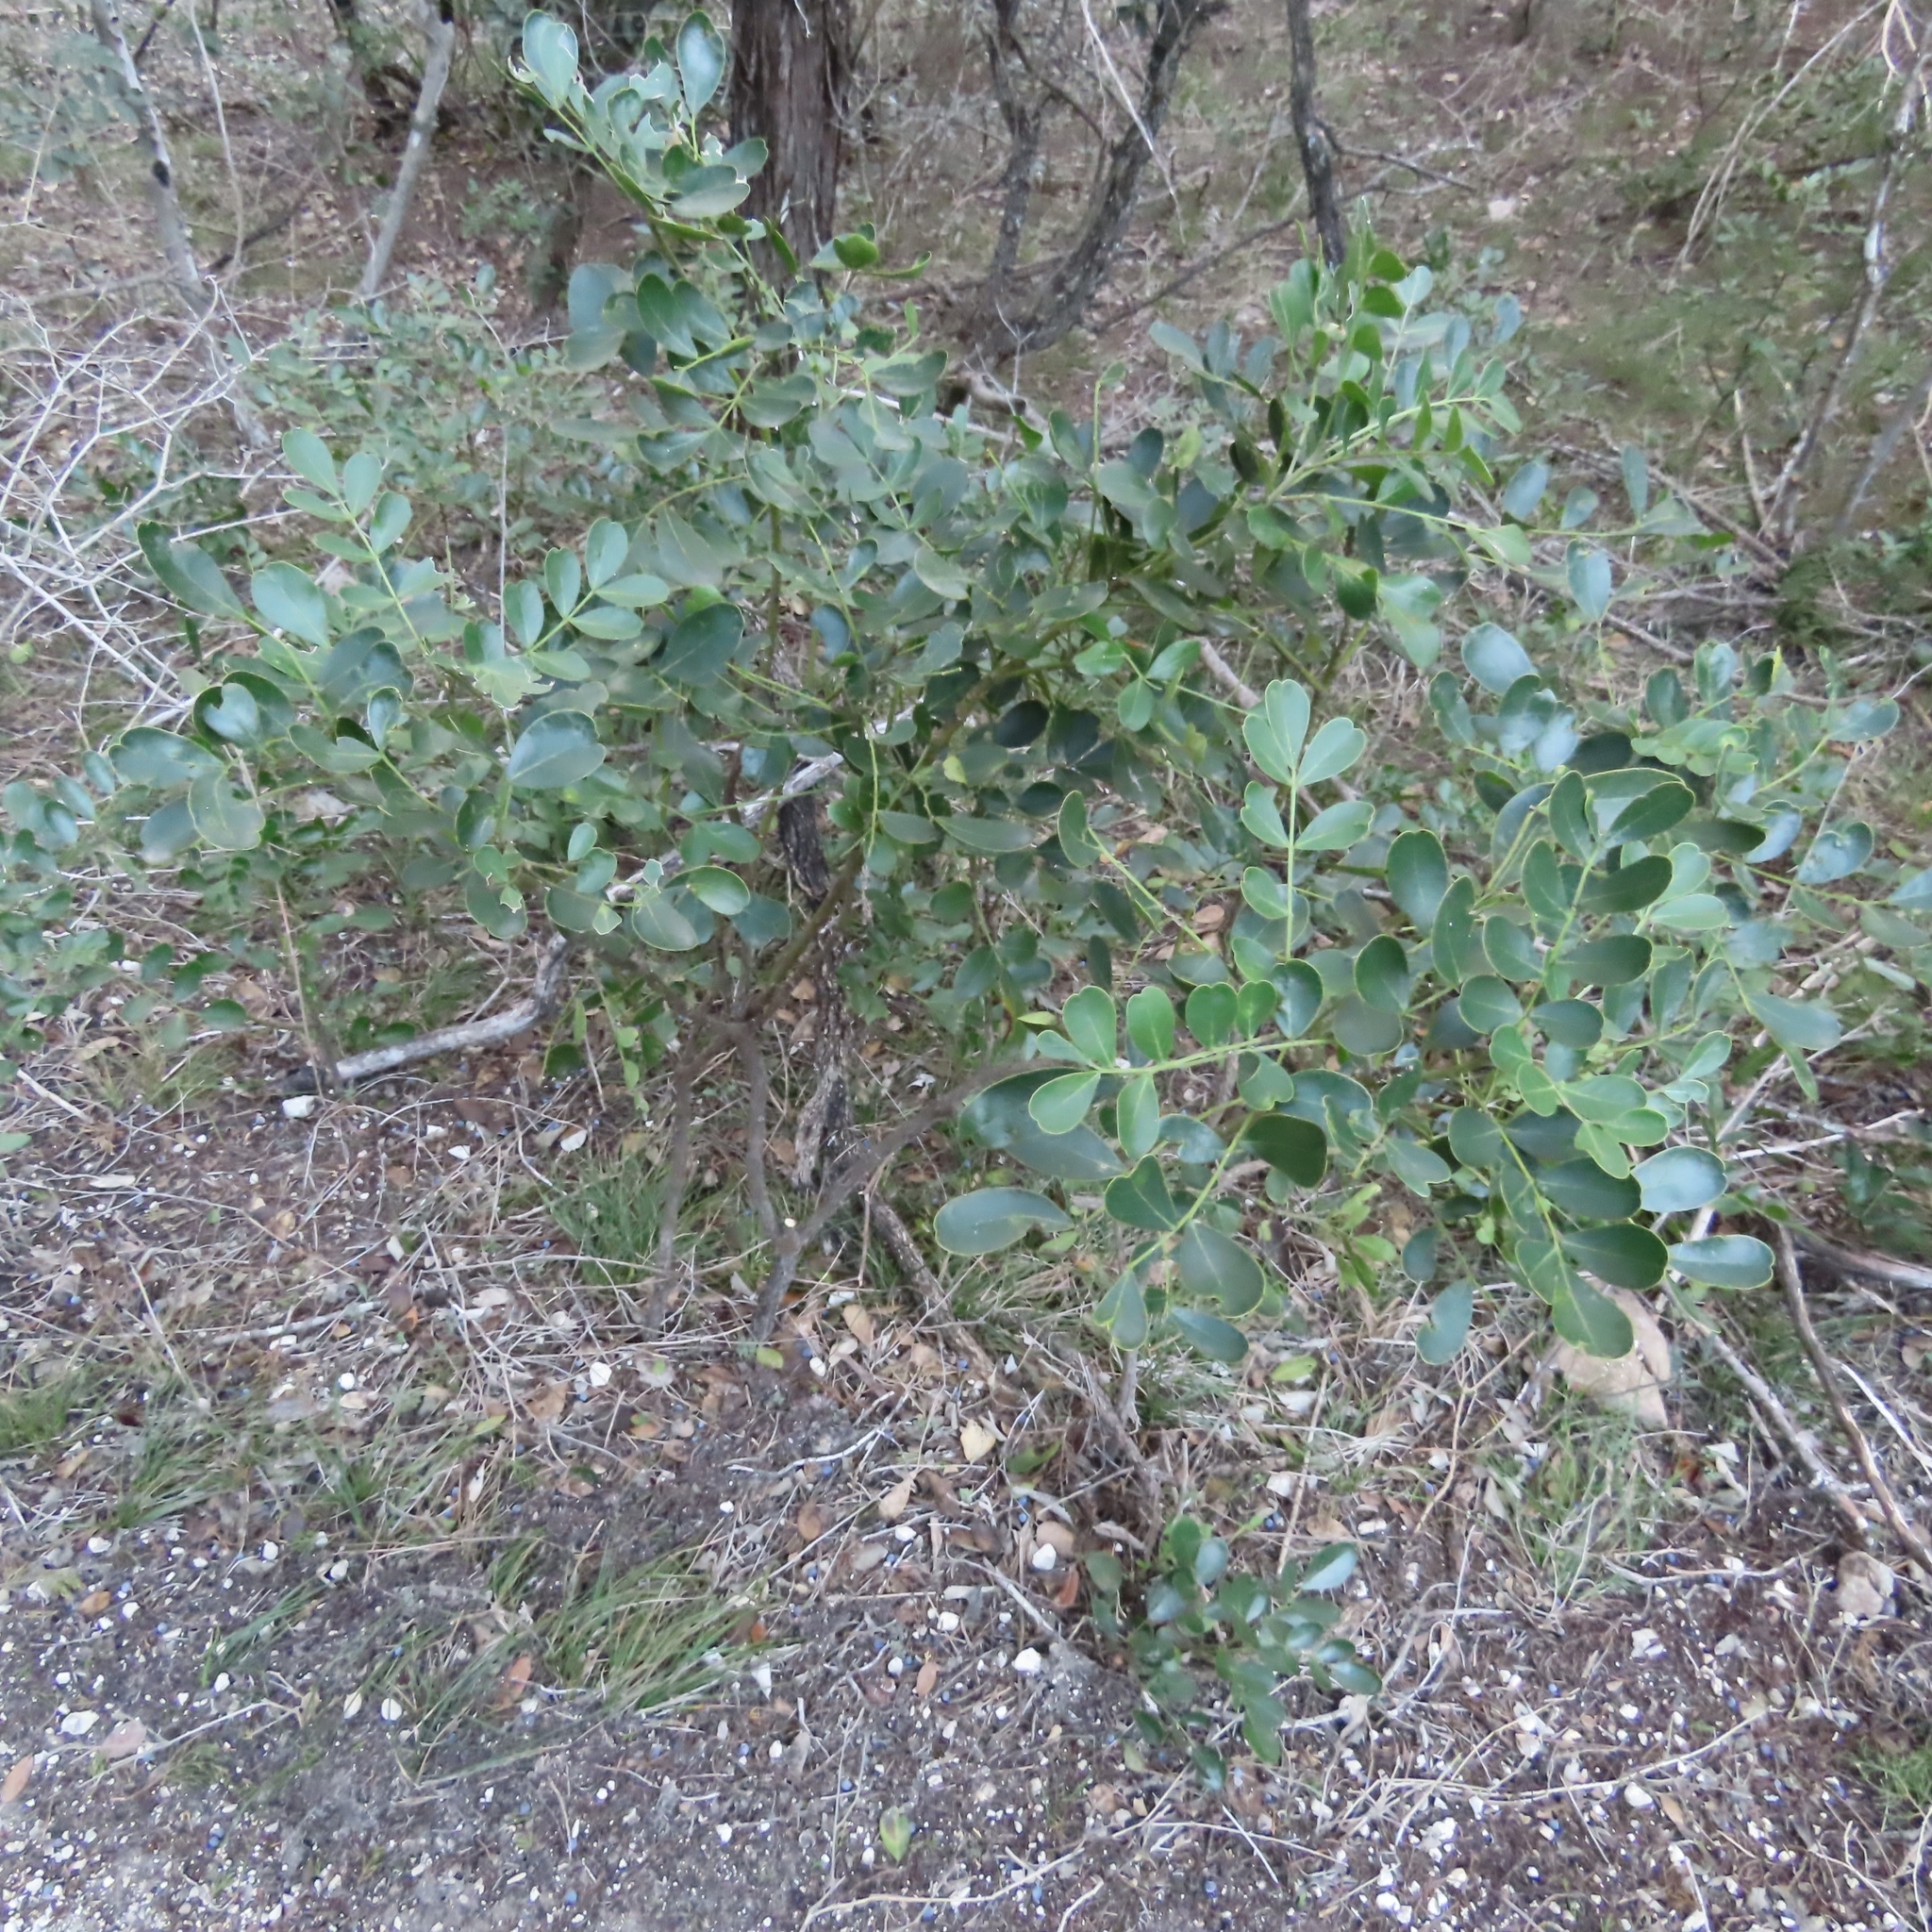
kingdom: Plantae
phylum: Tracheophyta
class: Magnoliopsida
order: Fabales
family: Fabaceae
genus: Dermatophyllum
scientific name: Dermatophyllum secundiflorum
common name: Texas-mountain-laurel
